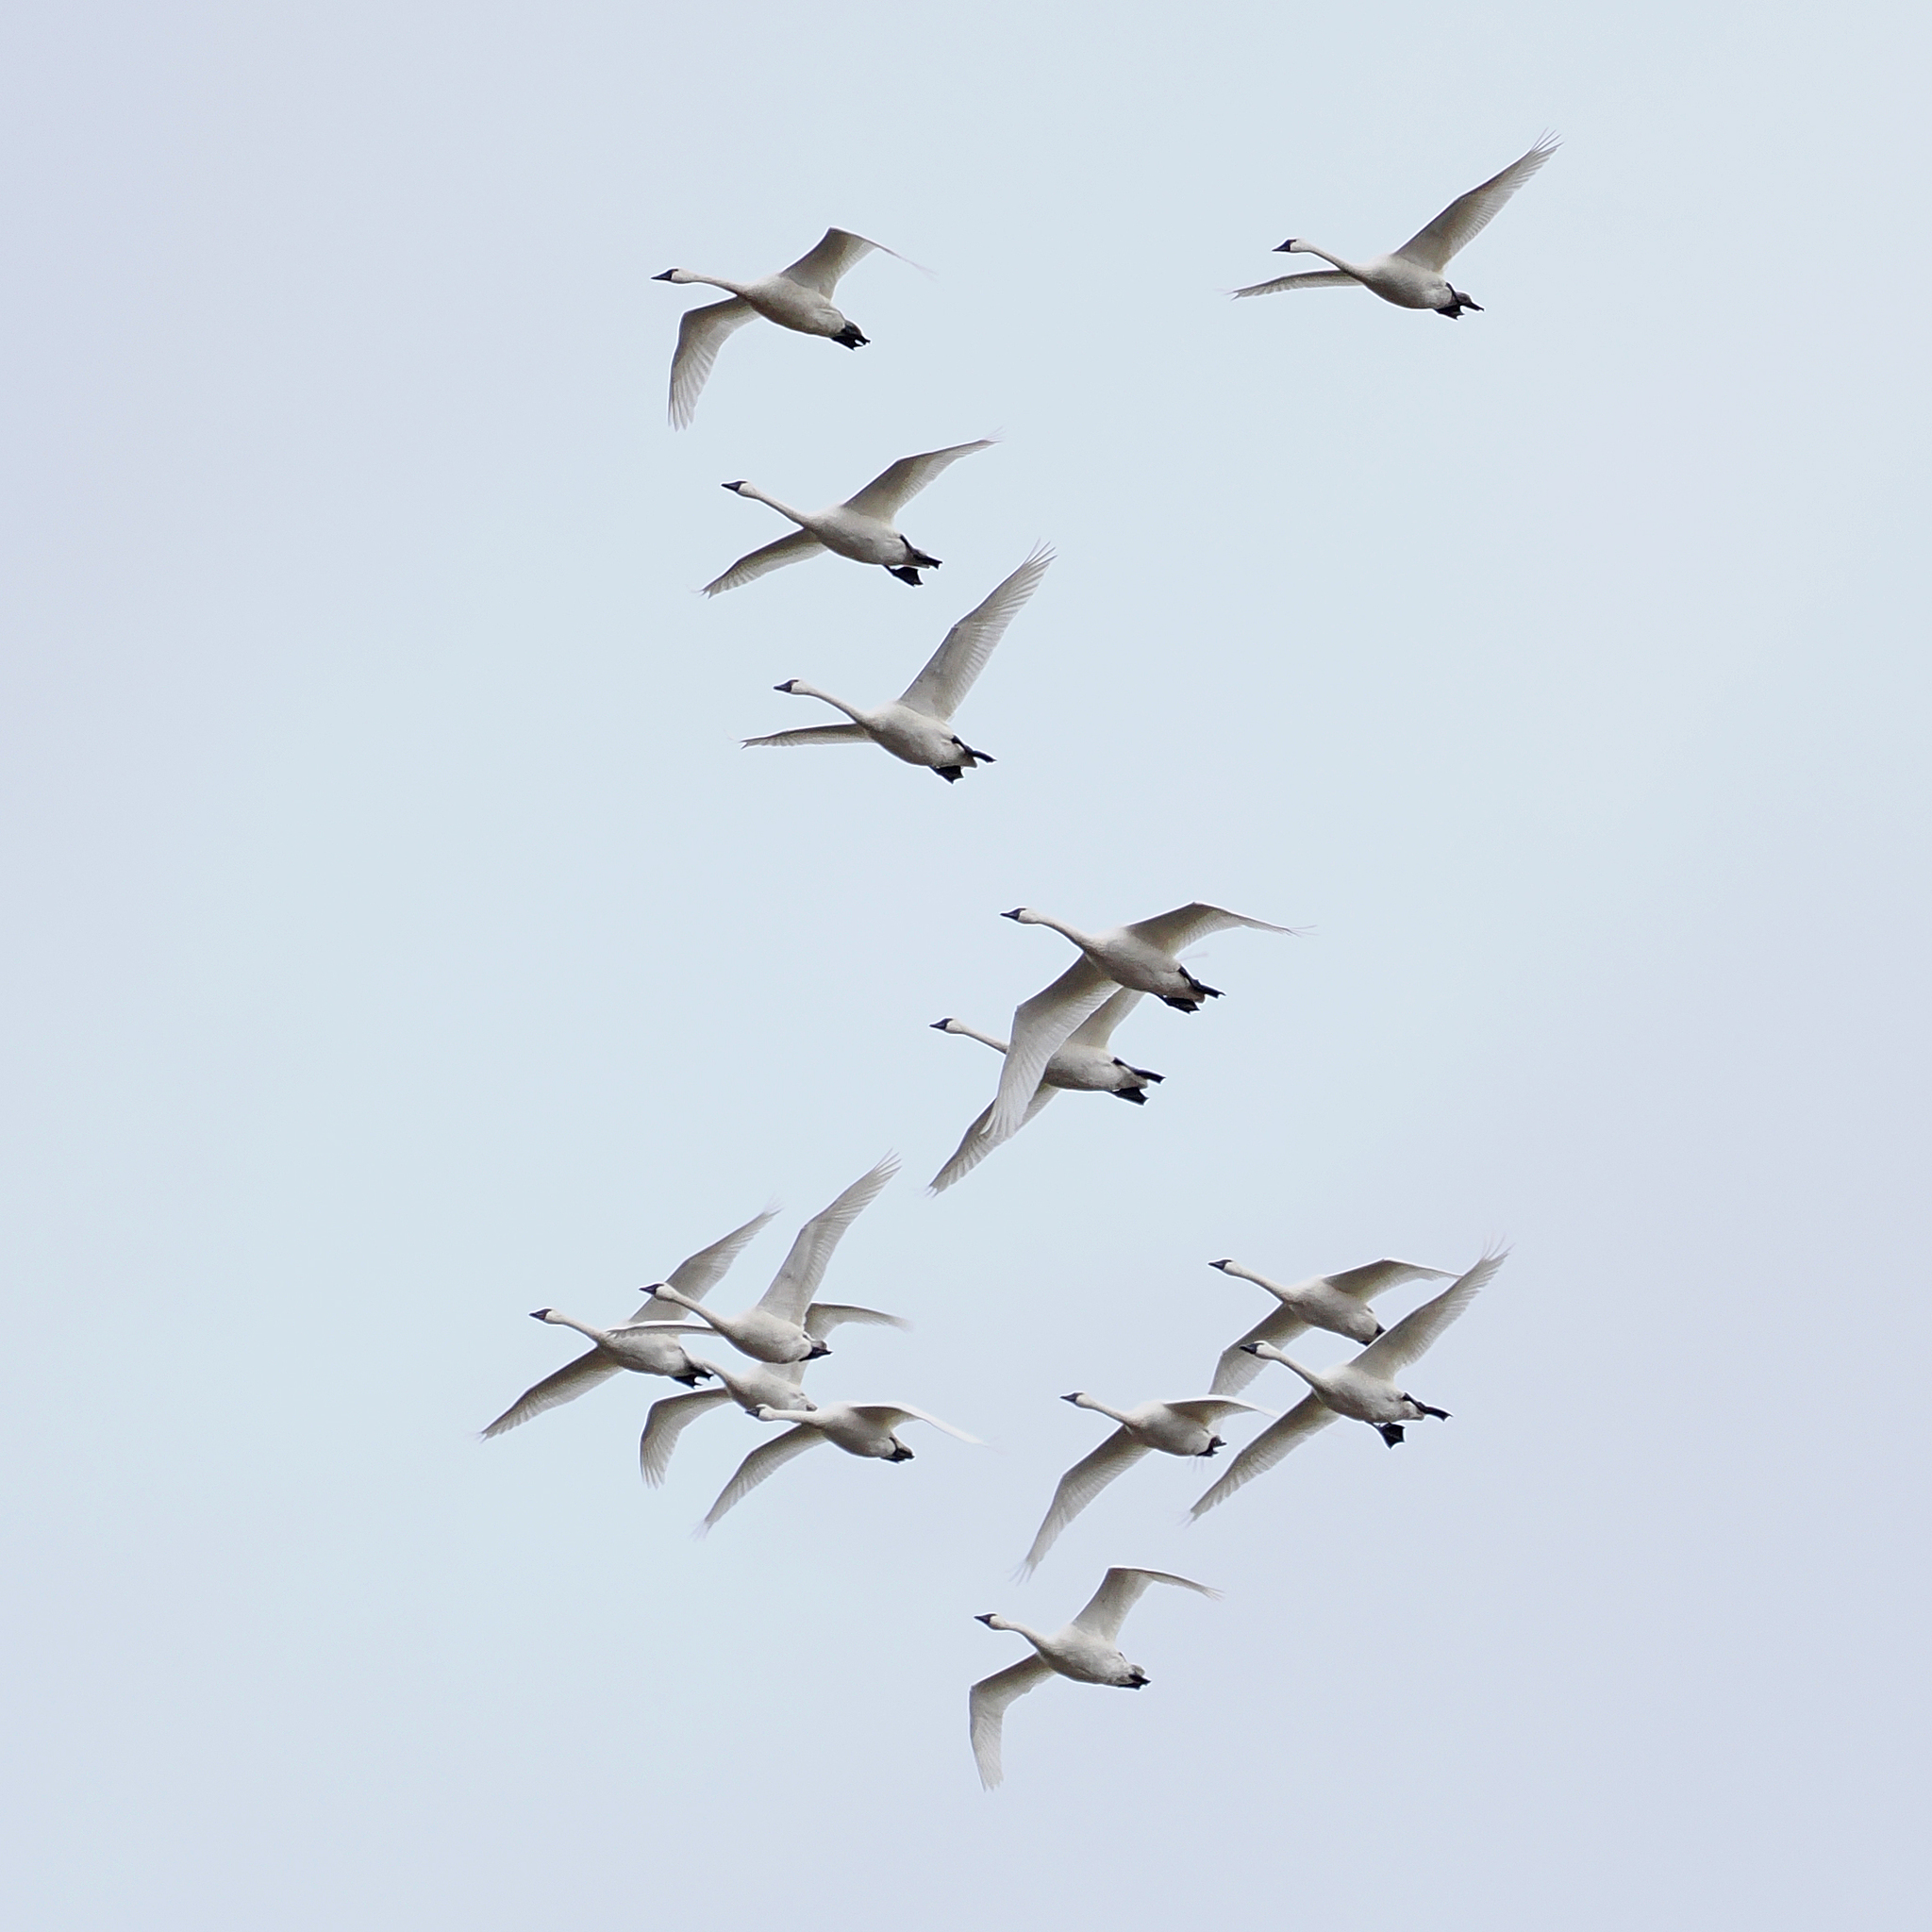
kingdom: Animalia
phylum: Chordata
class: Aves
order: Anseriformes
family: Anatidae
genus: Cygnus
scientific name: Cygnus columbianus
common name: Tundra swan
